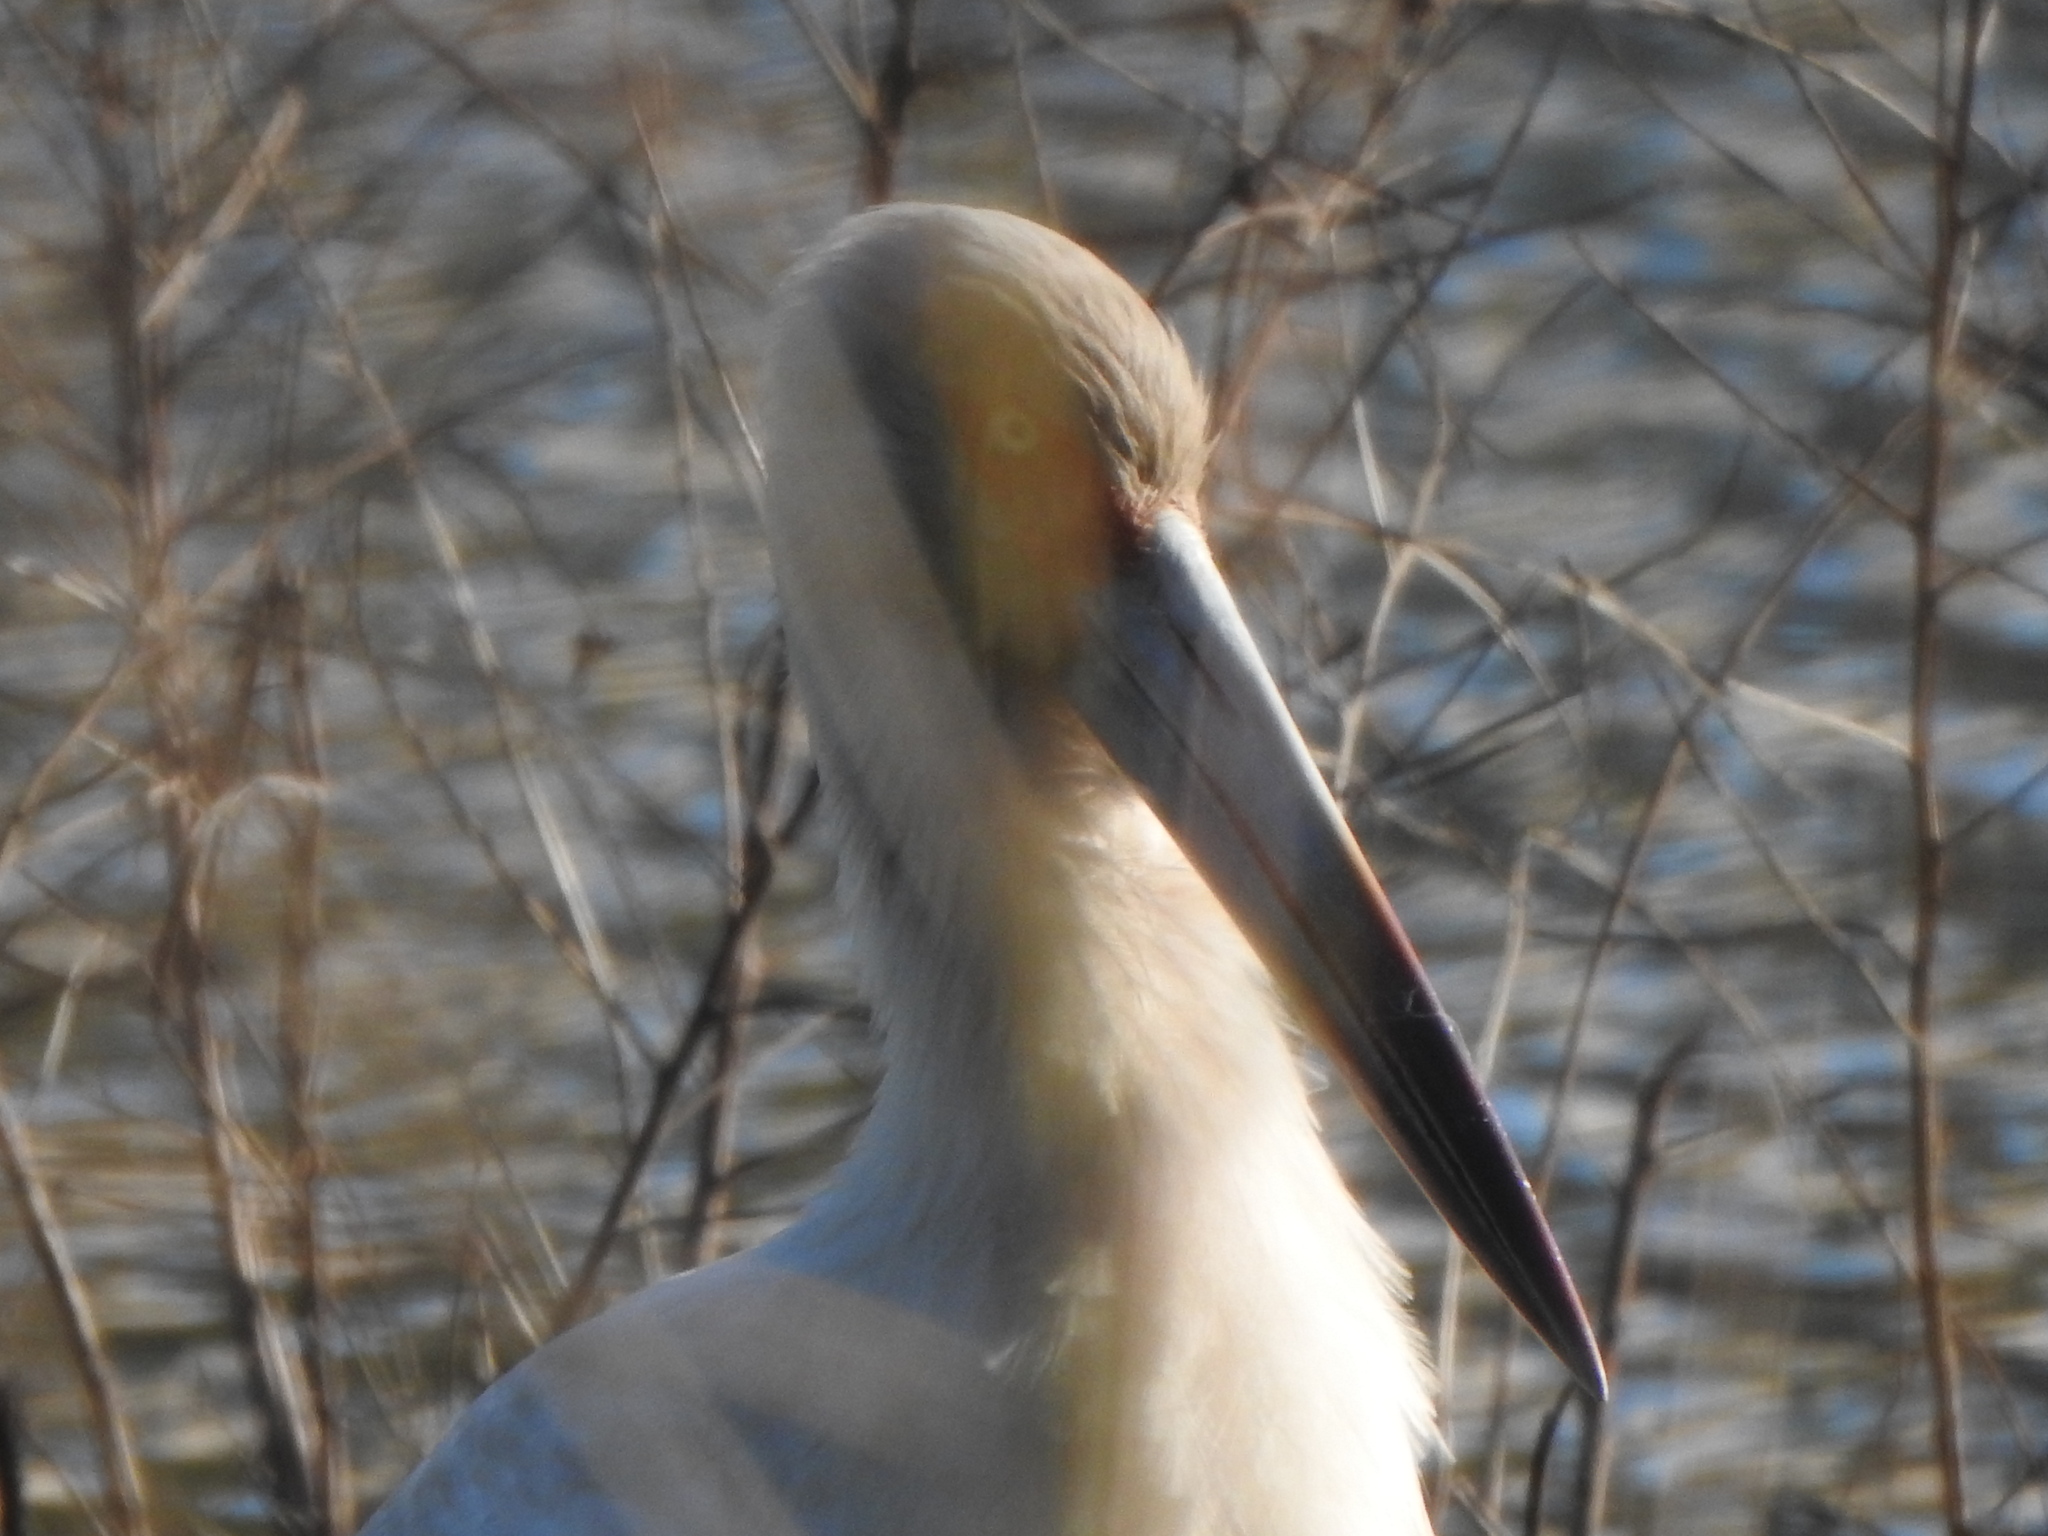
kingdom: Animalia
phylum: Chordata
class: Aves
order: Ciconiiformes
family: Ciconiidae
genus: Ciconia
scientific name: Ciconia maguari
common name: Maguari stork
